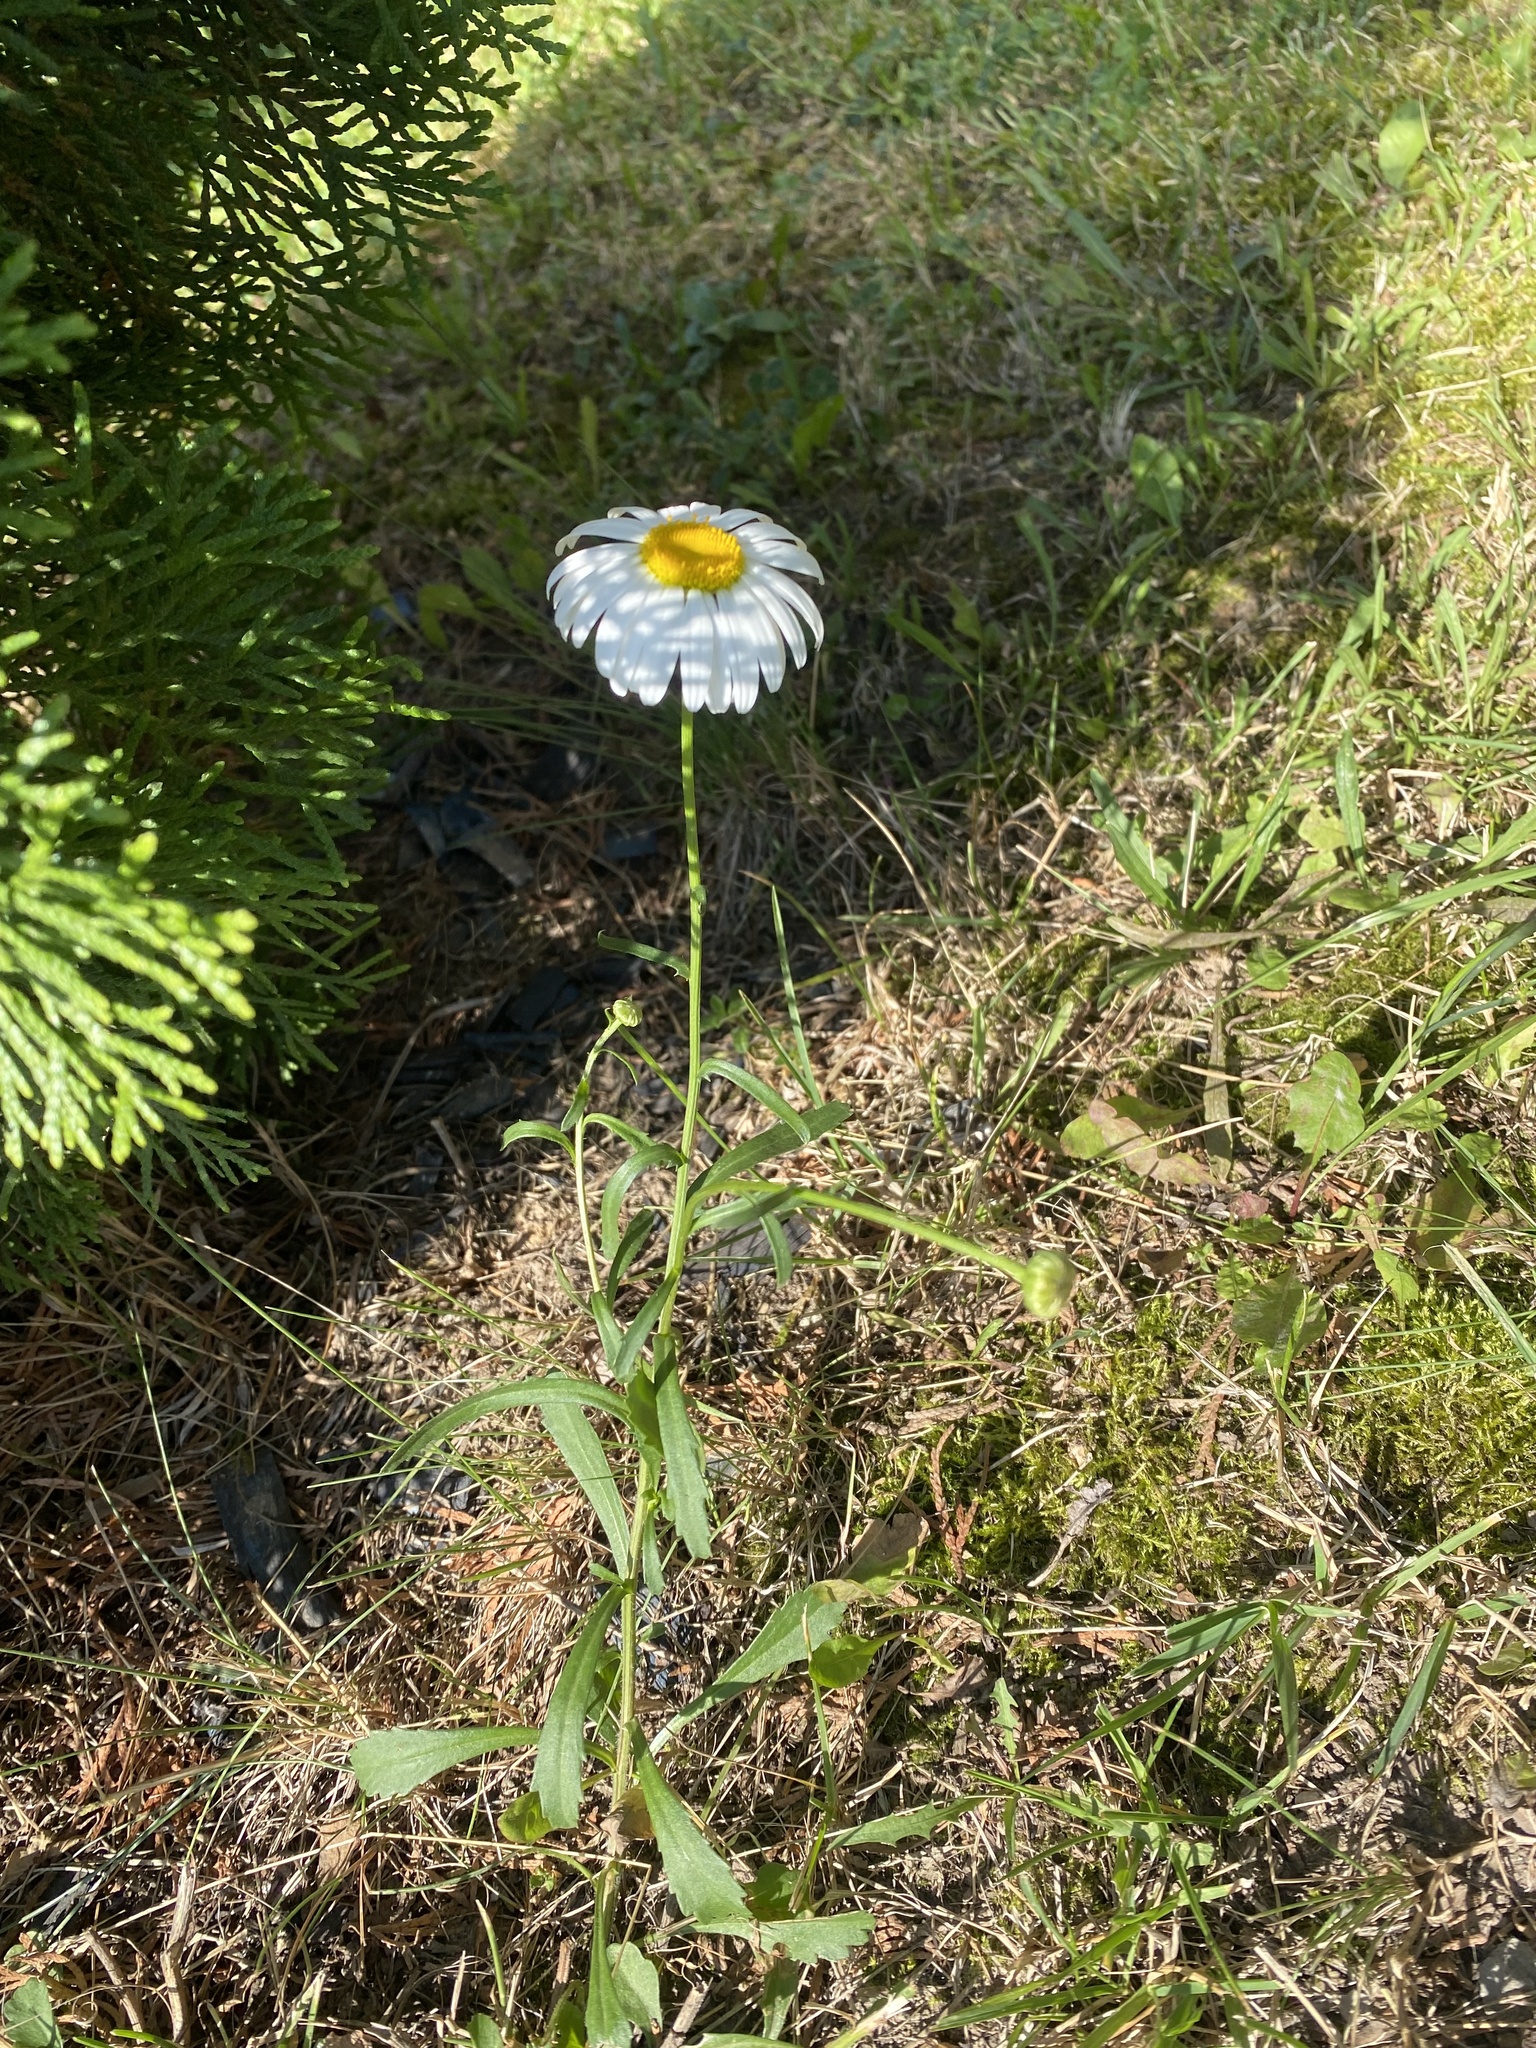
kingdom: Plantae
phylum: Tracheophyta
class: Magnoliopsida
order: Asterales
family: Asteraceae
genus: Leucanthemum
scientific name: Leucanthemum vulgare
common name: Oxeye daisy
